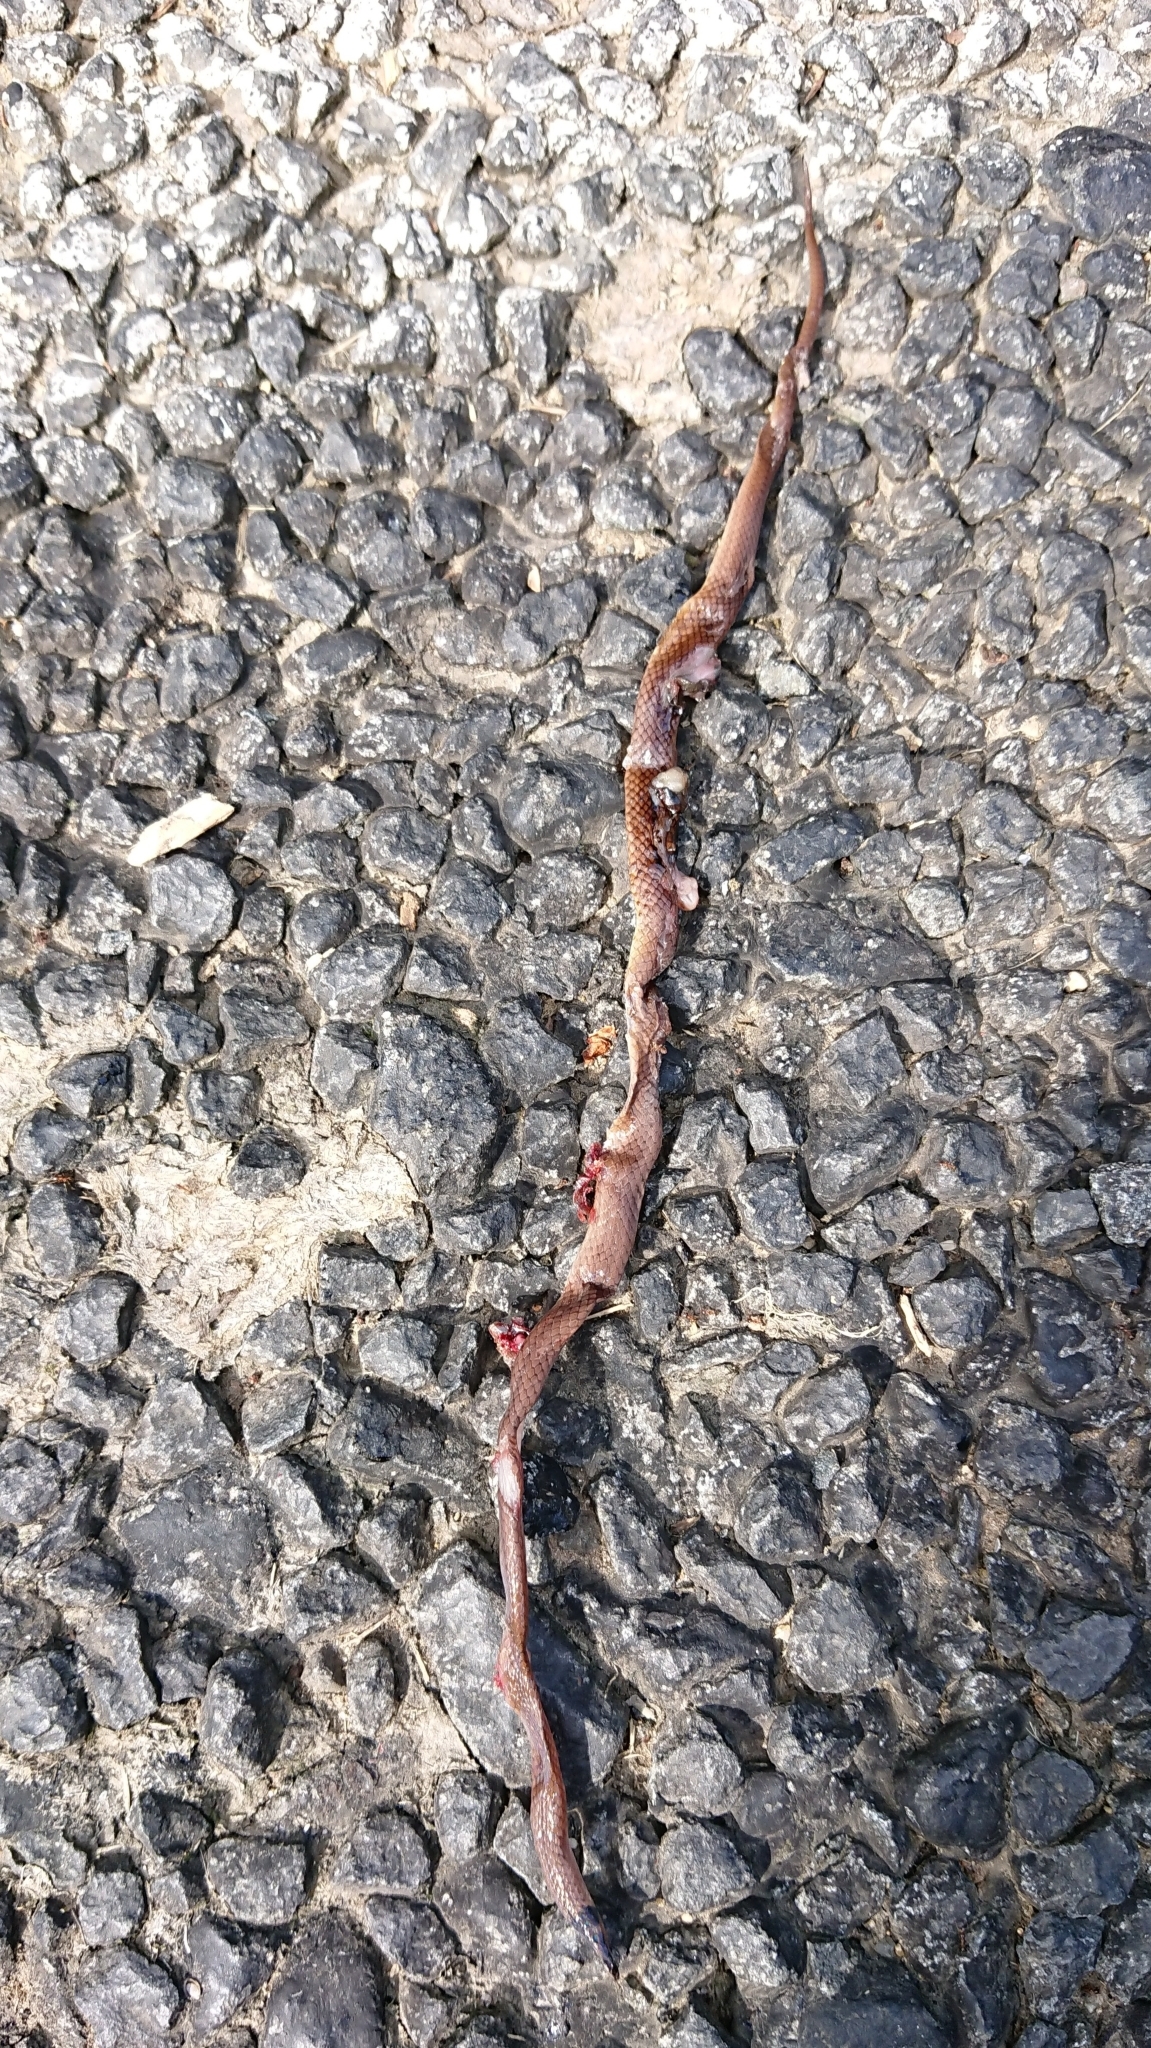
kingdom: Animalia
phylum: Chordata
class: Squamata
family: Atractaspididae
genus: Aparallactus
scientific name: Aparallactus capensis
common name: Cape centipede eater
